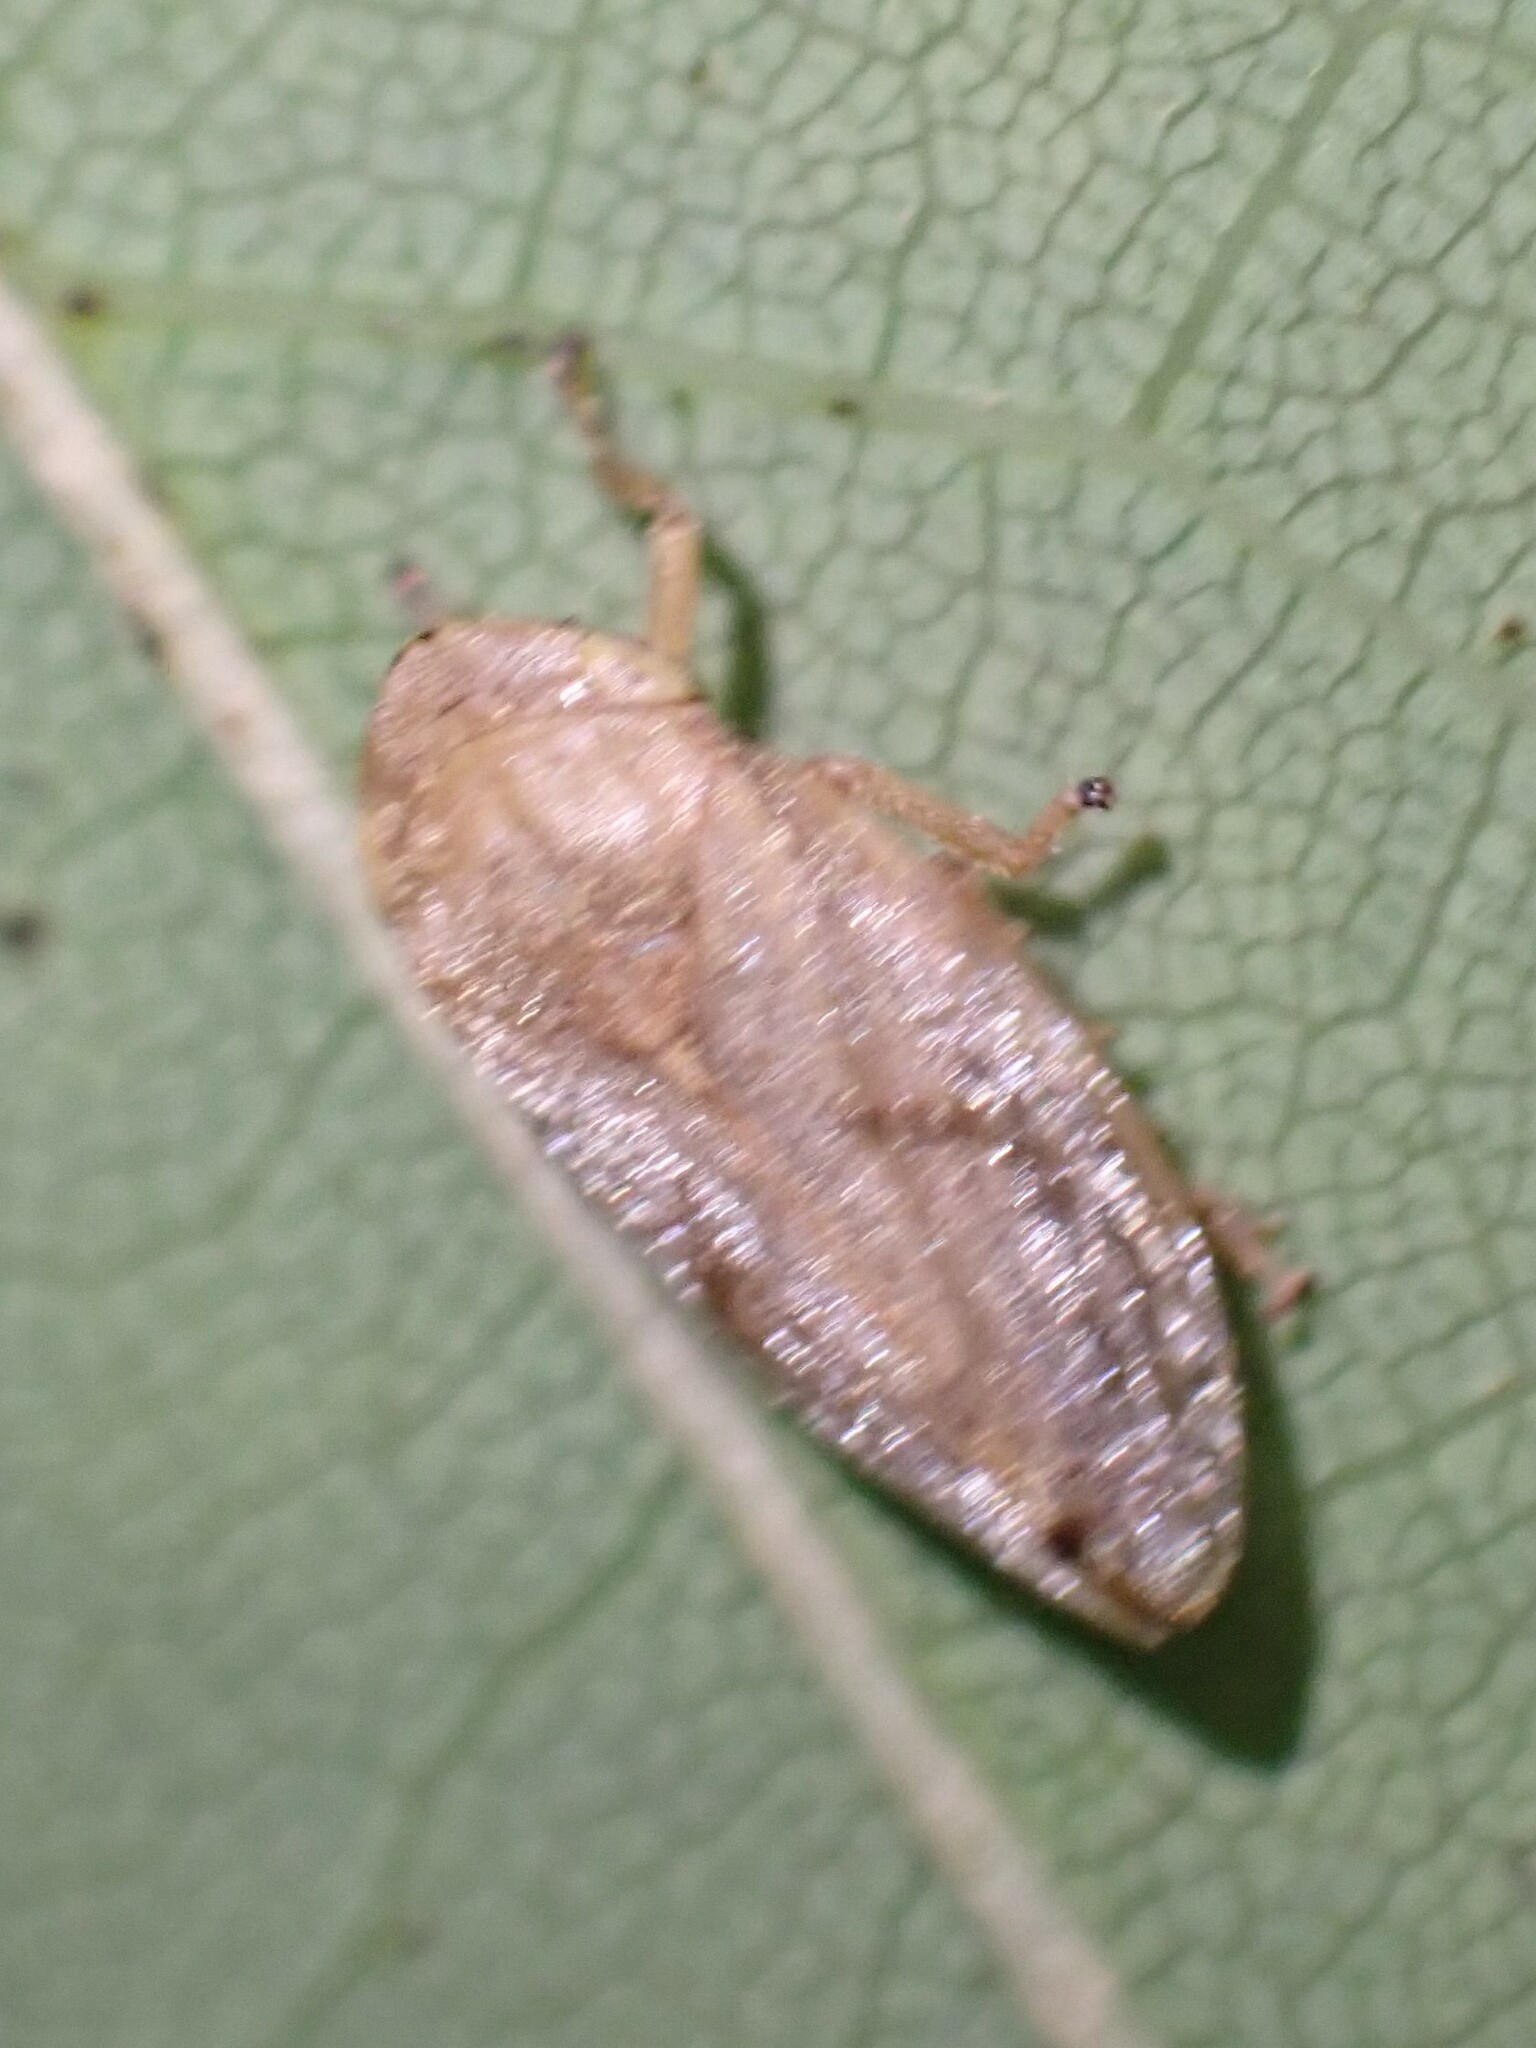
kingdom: Animalia
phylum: Arthropoda
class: Insecta
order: Hemiptera
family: Aphrophoridae
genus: Philaenus
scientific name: Philaenus spumarius
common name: Meadow spittlebug
